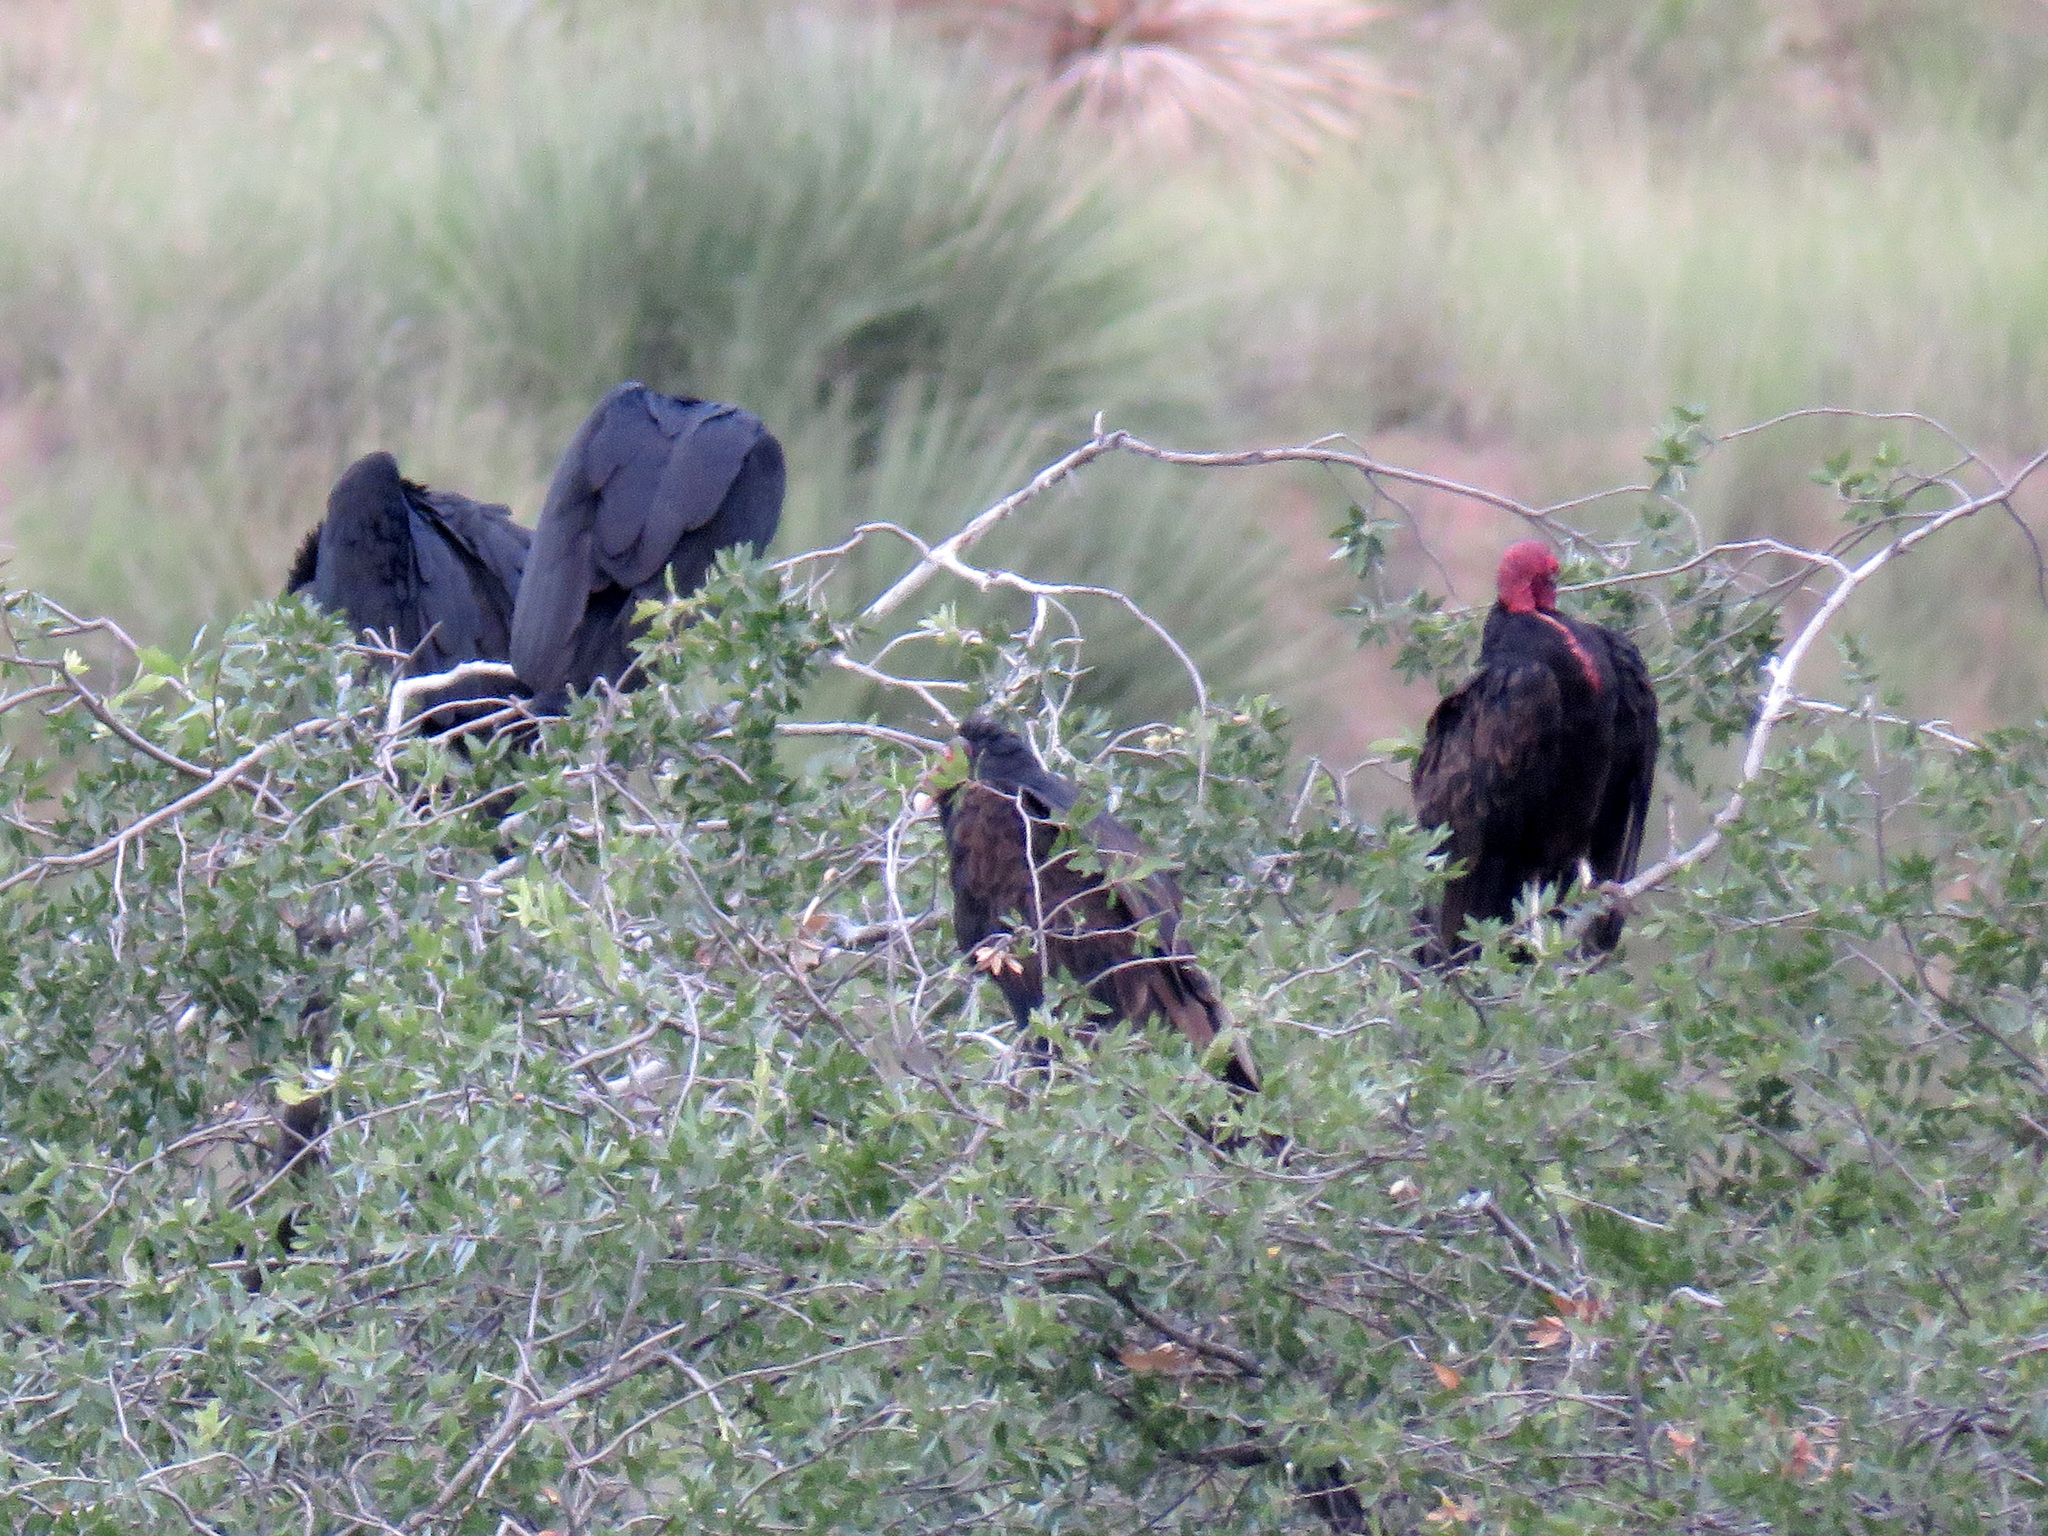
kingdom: Animalia
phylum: Chordata
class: Aves
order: Accipitriformes
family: Cathartidae
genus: Cathartes
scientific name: Cathartes aura
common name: Turkey vulture
